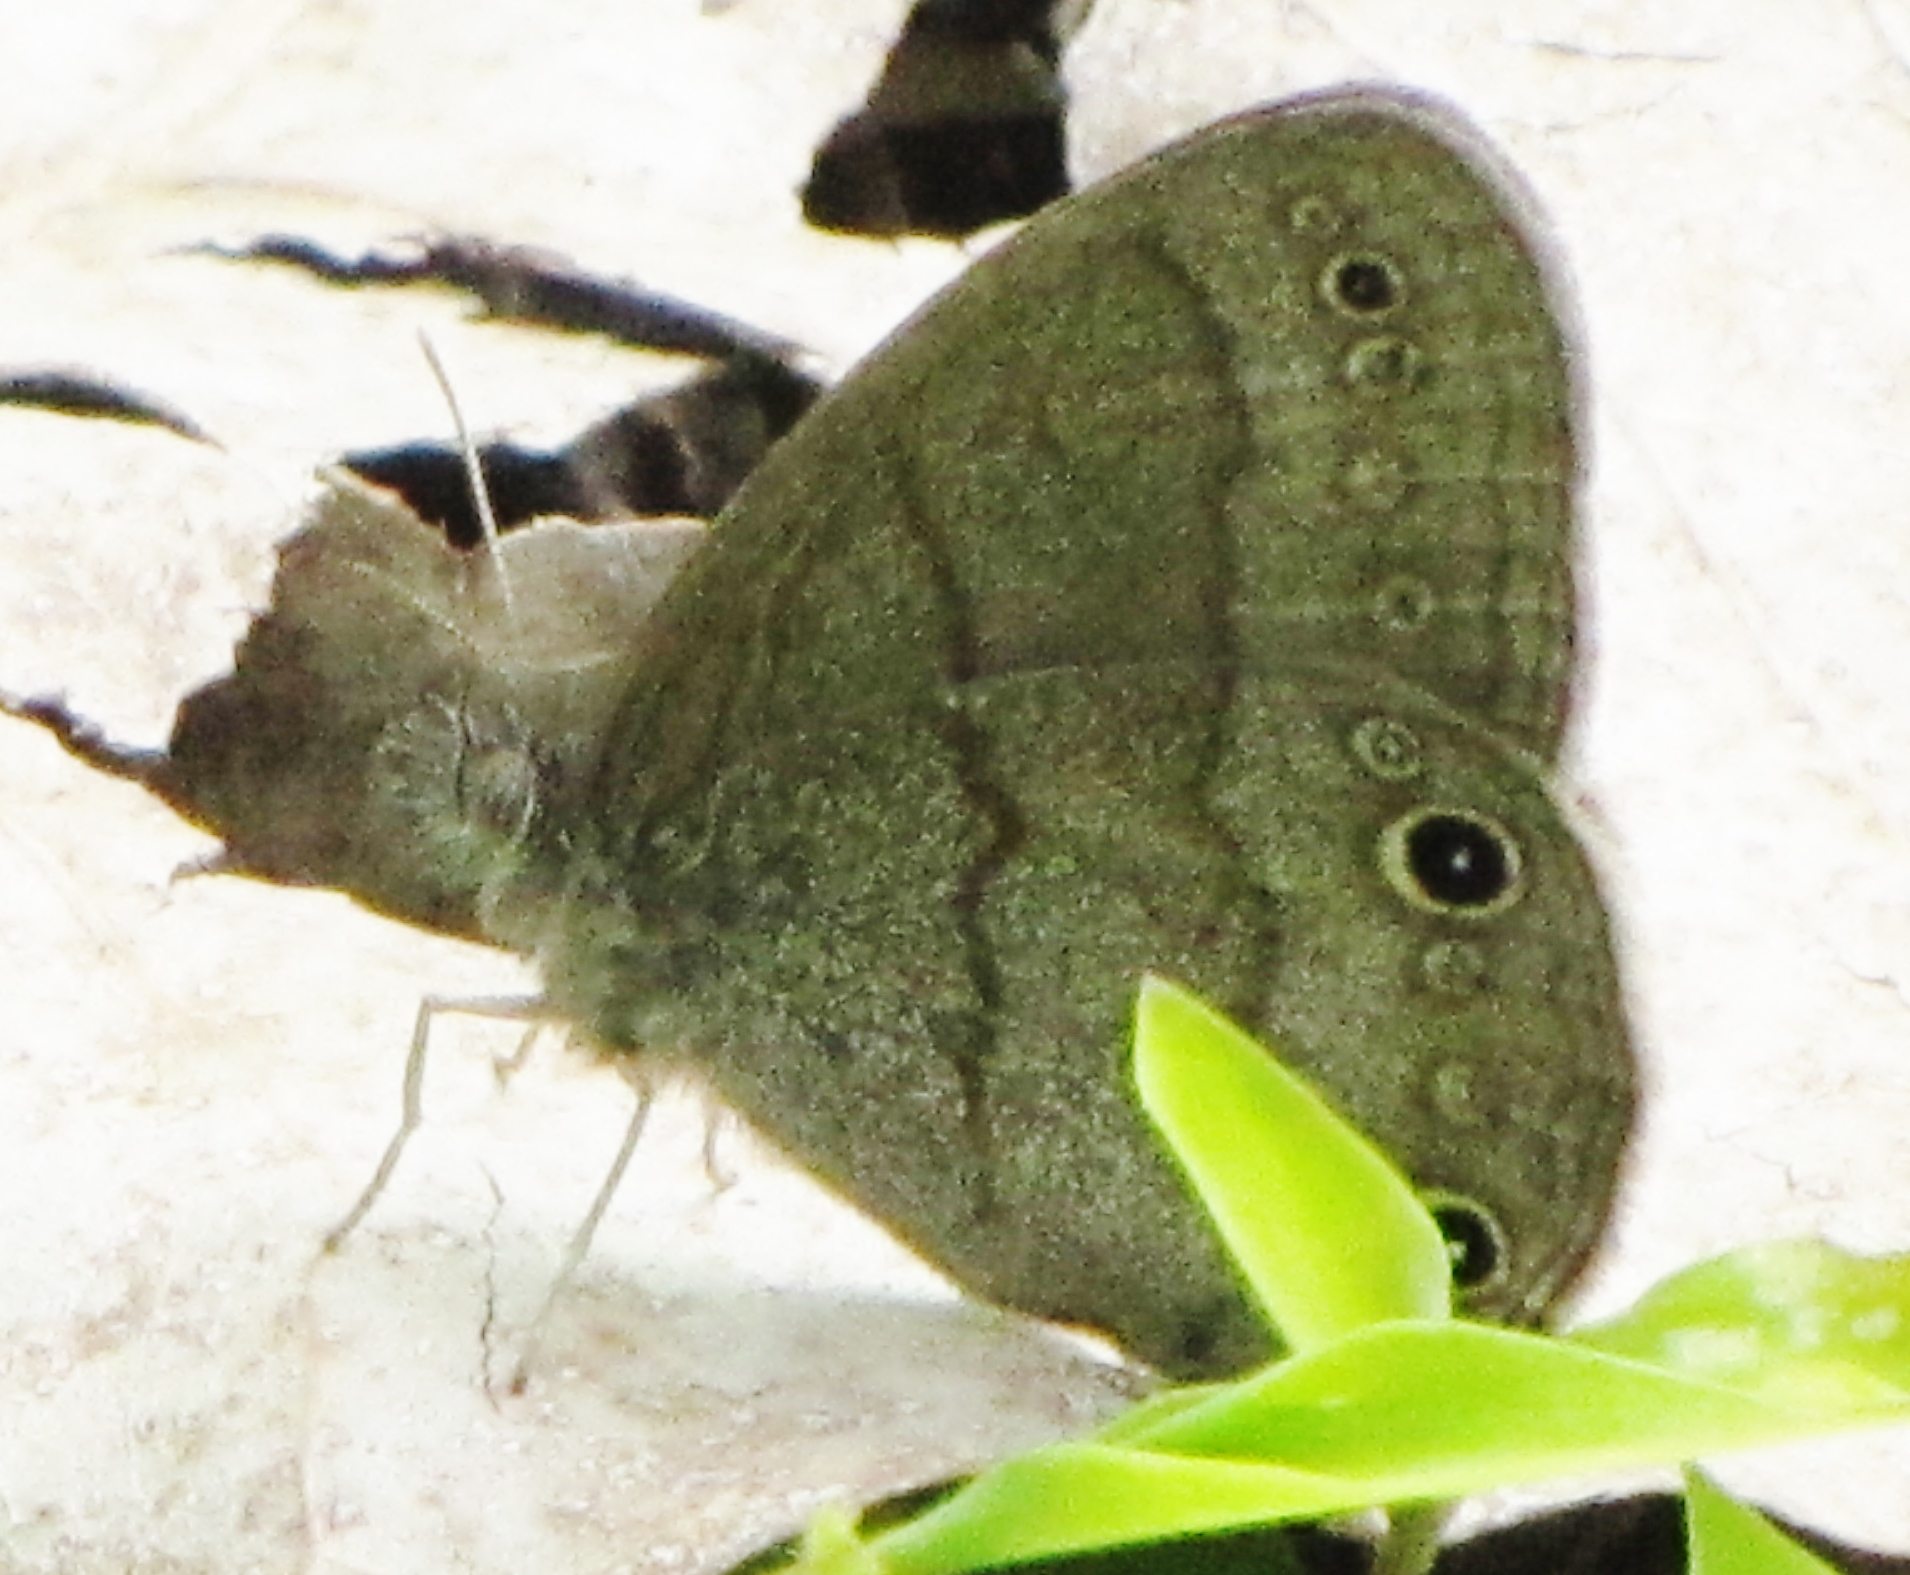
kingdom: Animalia
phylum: Arthropoda
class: Insecta
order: Lepidoptera
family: Nymphalidae
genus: Hermeuptychia
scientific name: Hermeuptychia hermes
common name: Hermes satyr
